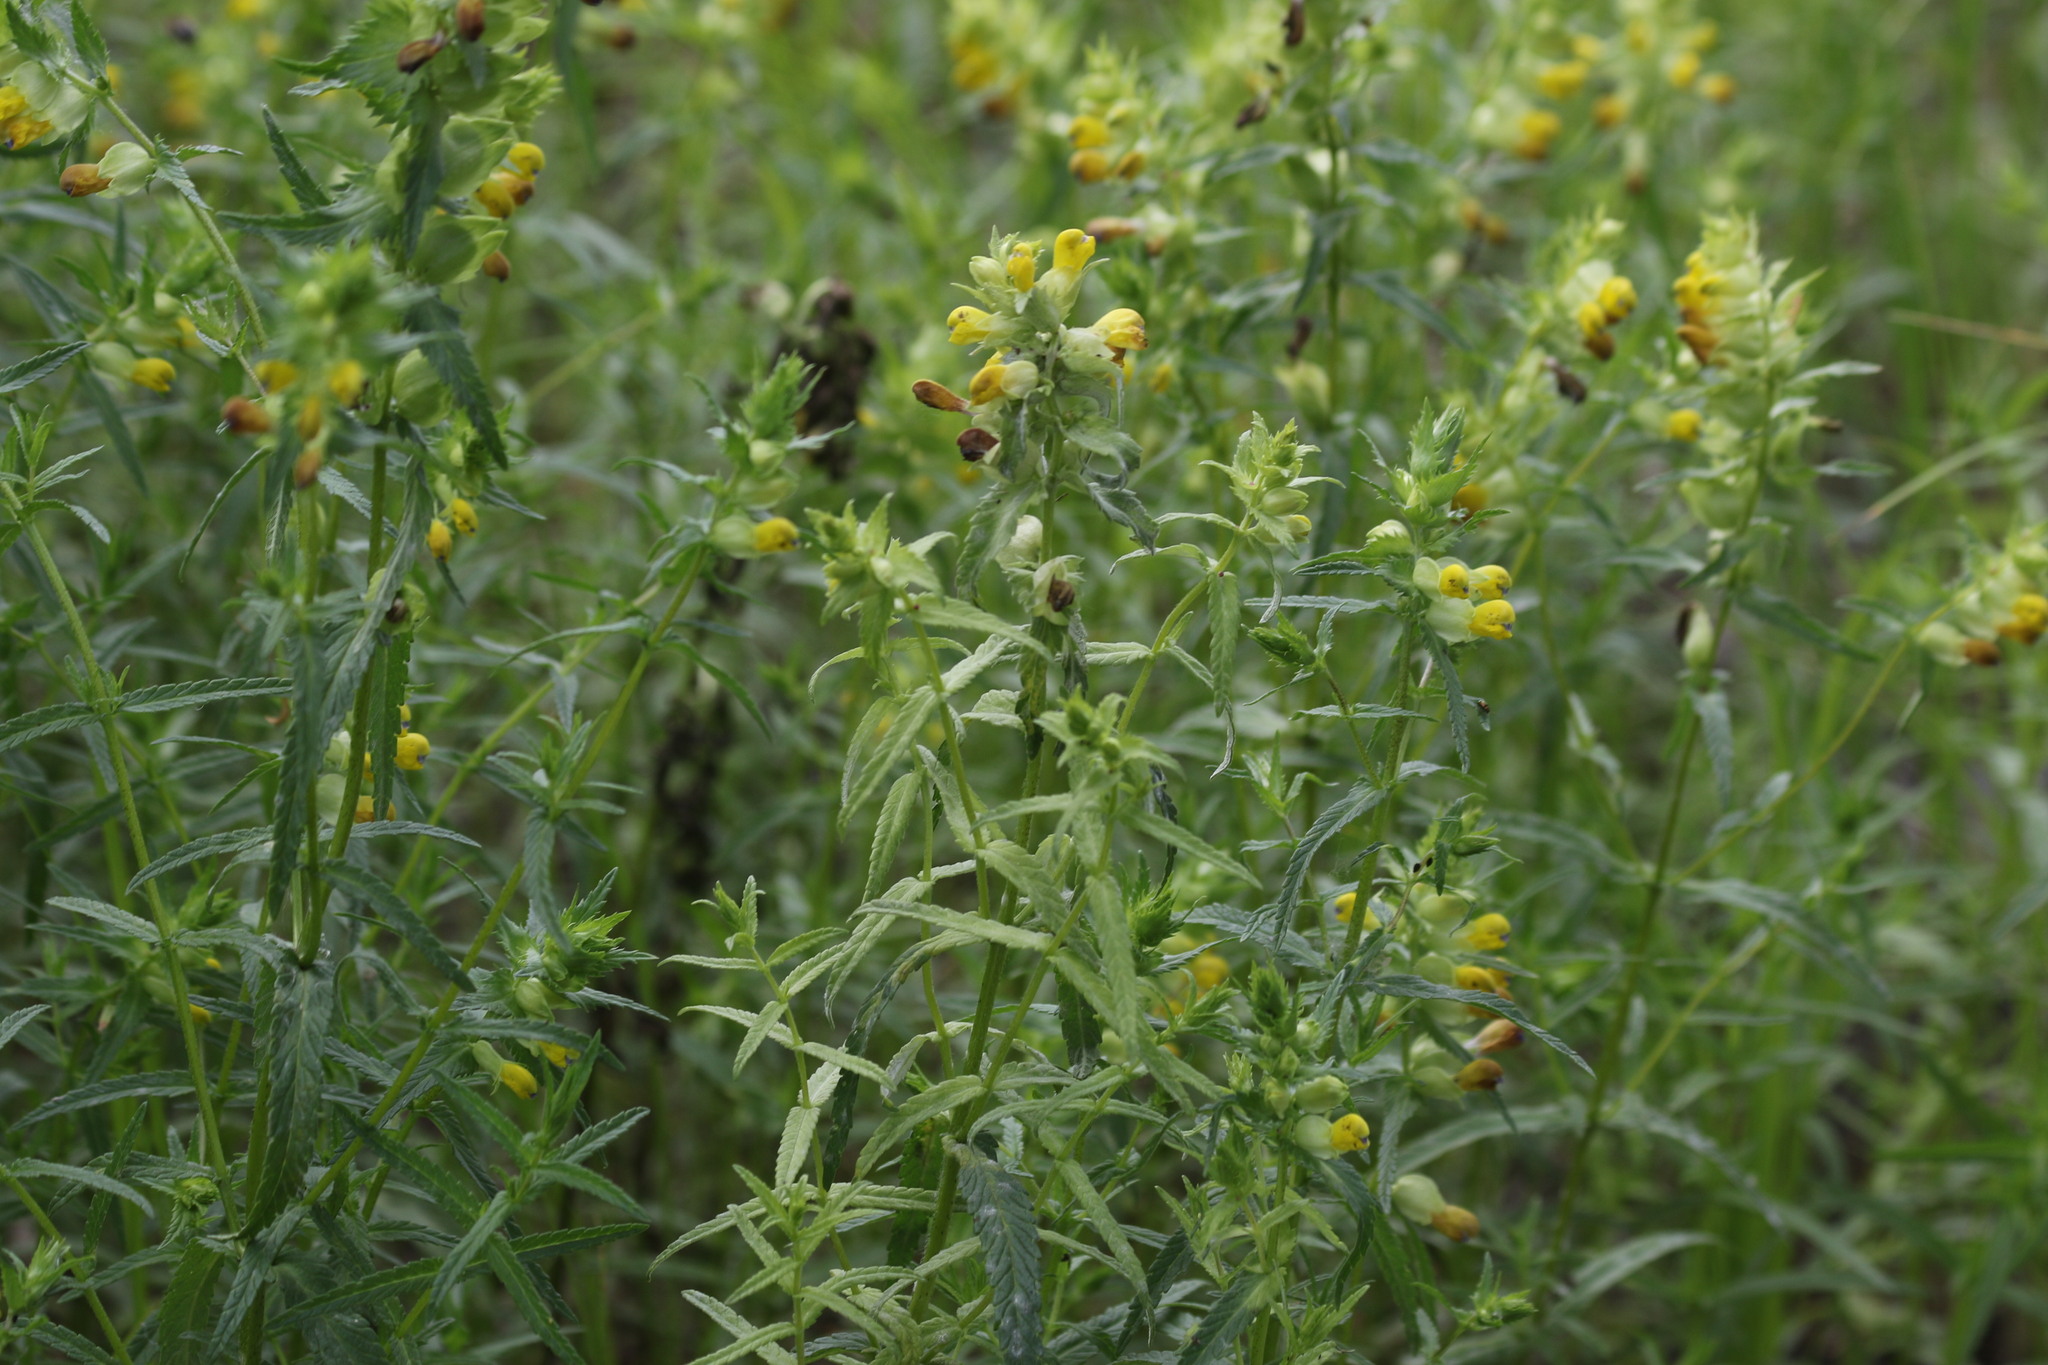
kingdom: Plantae
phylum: Tracheophyta
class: Magnoliopsida
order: Lamiales
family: Orobanchaceae
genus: Rhinanthus
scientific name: Rhinanthus serotinus
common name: Late-flowering yellow rattle
